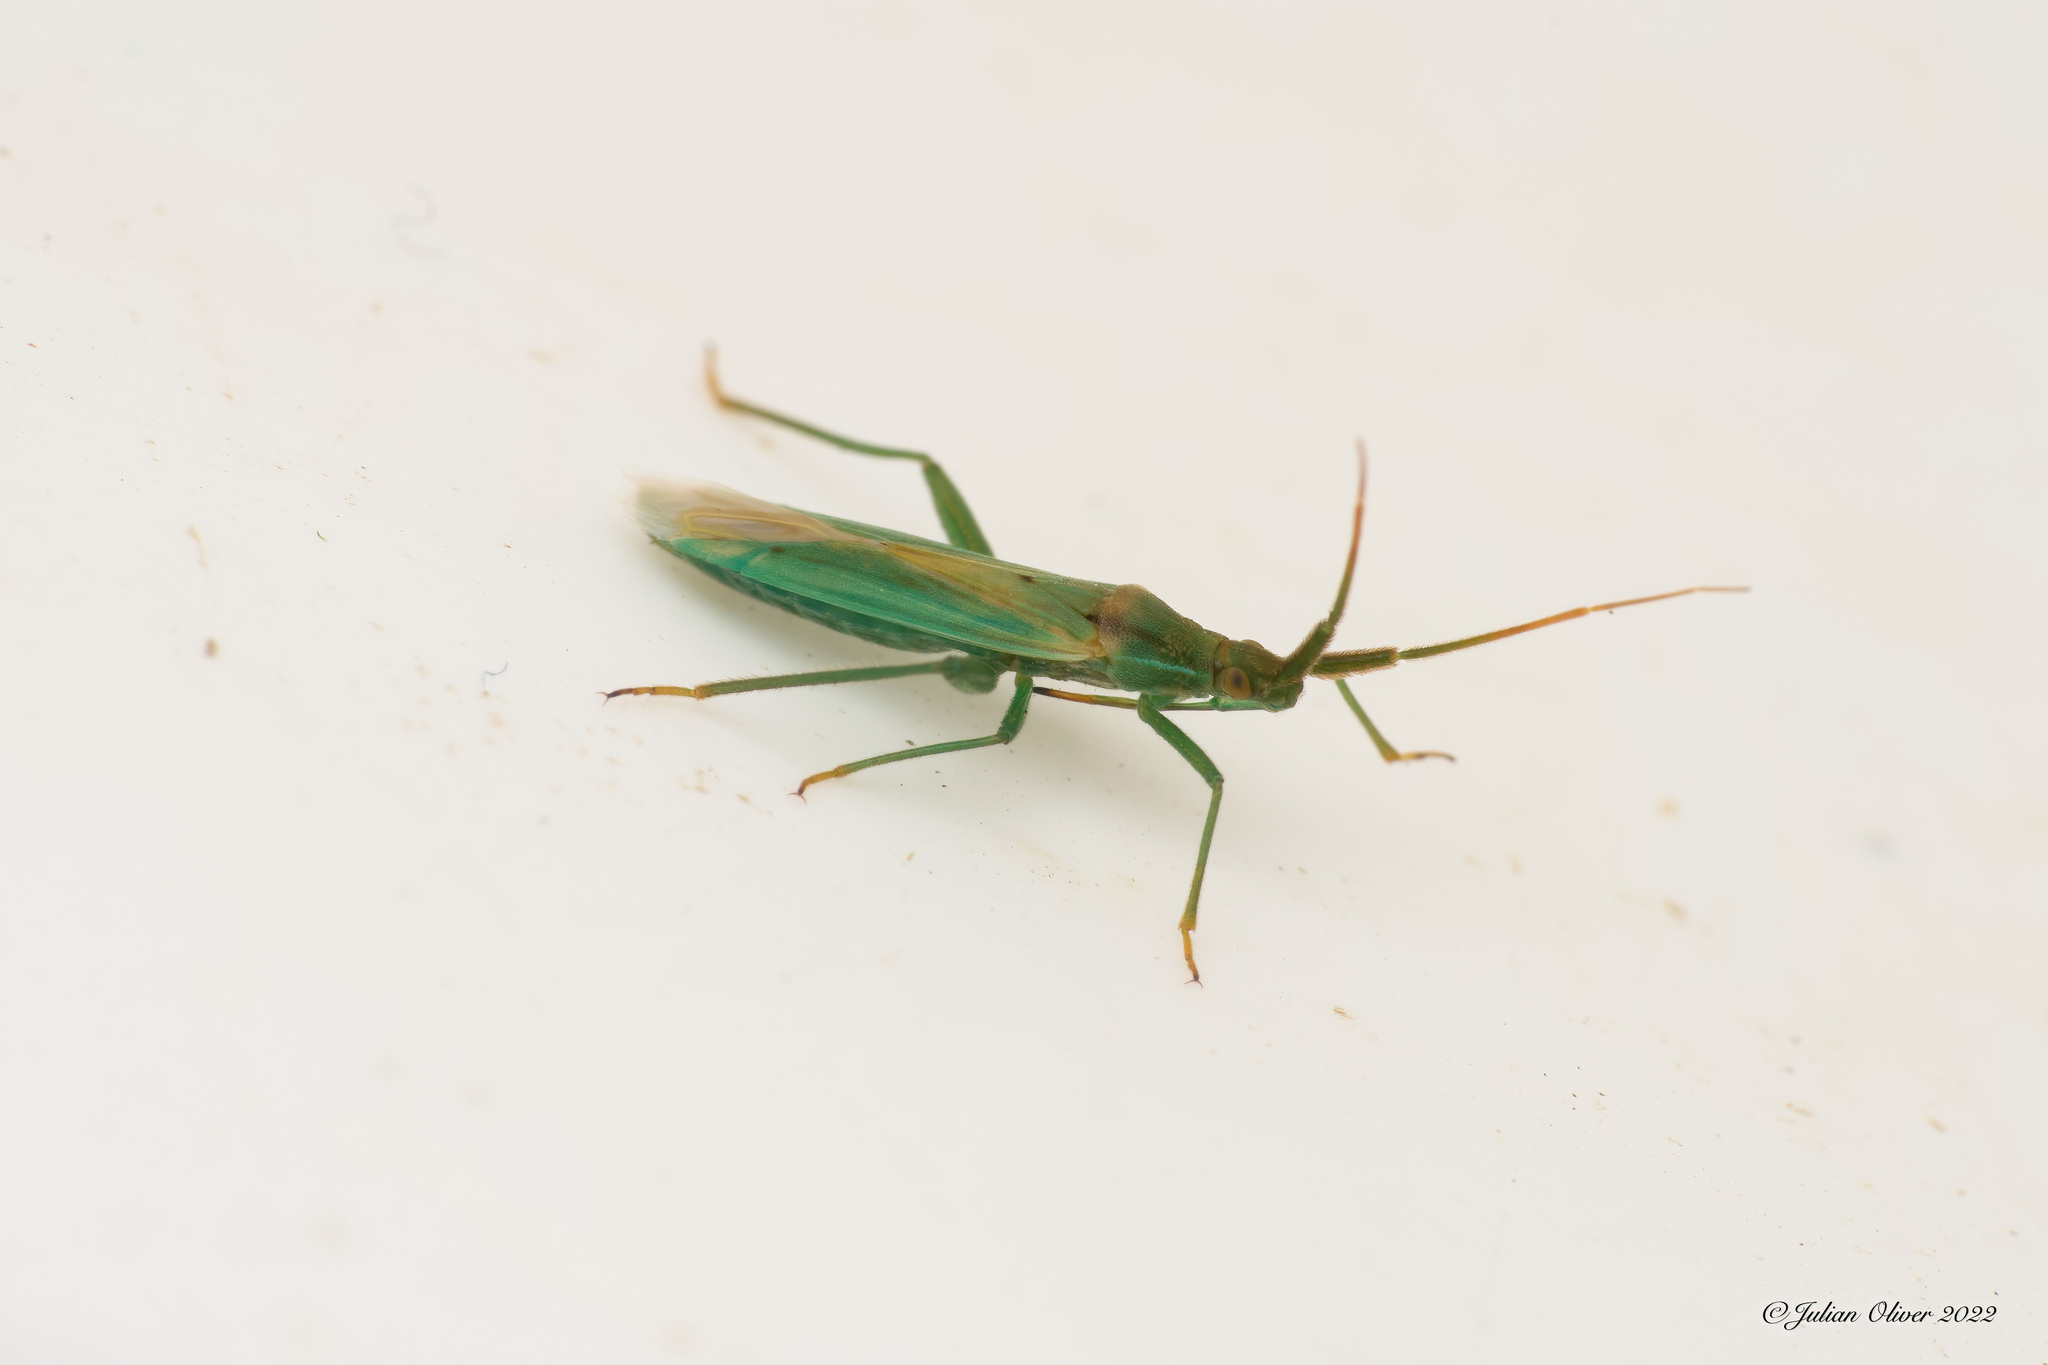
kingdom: Animalia
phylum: Arthropoda
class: Insecta
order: Hemiptera
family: Miridae
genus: Stenodema
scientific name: Stenodema laevigata
